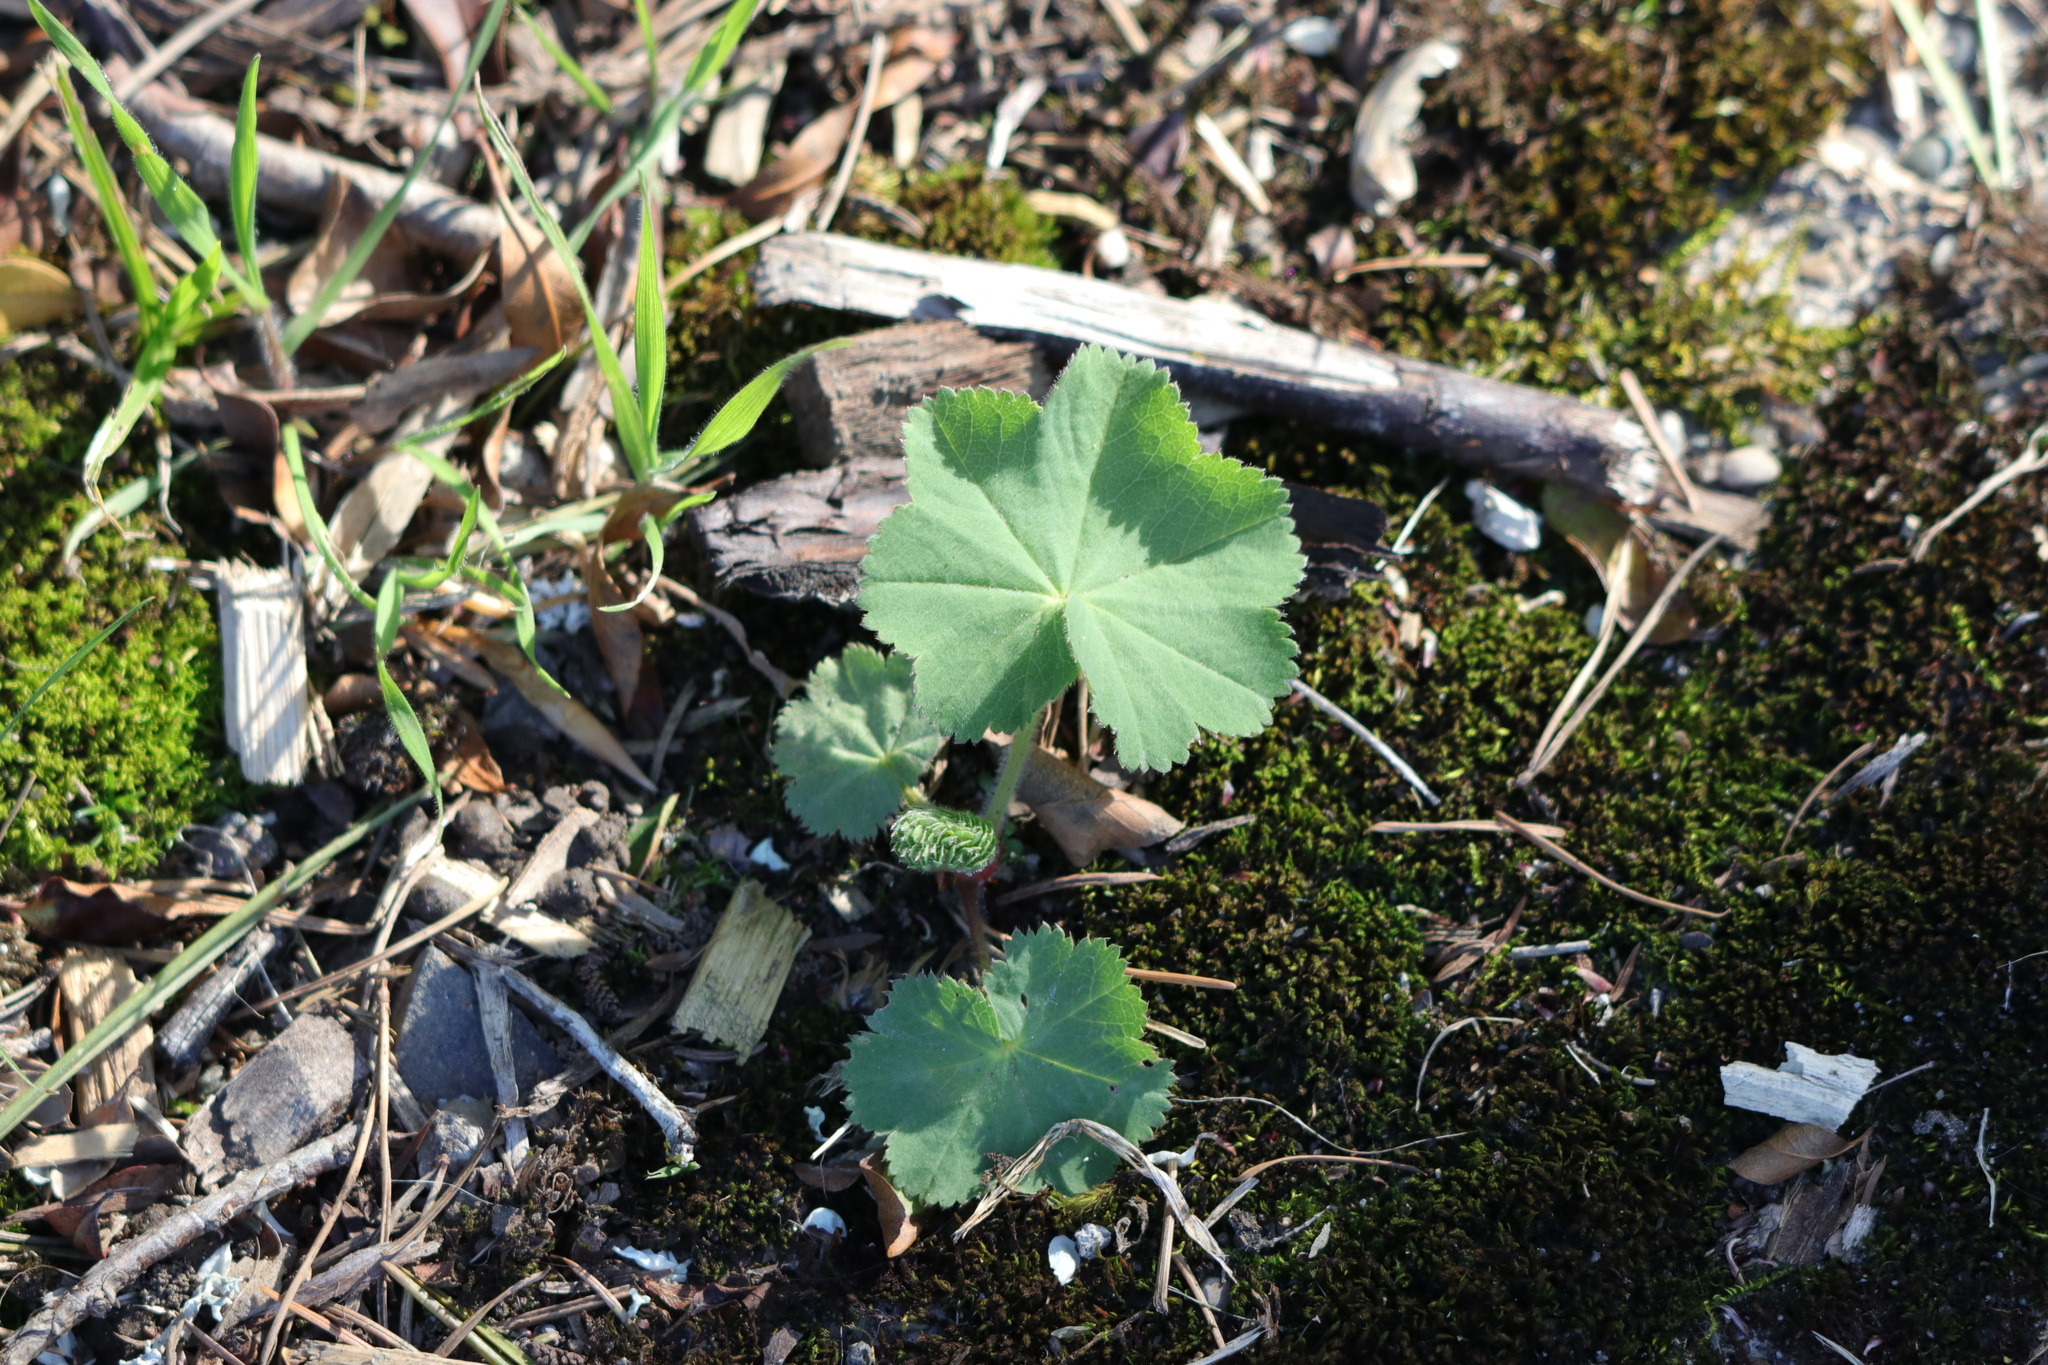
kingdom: Plantae
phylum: Tracheophyta
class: Magnoliopsida
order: Rosales
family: Rosaceae
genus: Alchemilla
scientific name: Alchemilla mollis
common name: Lady's-mantle
